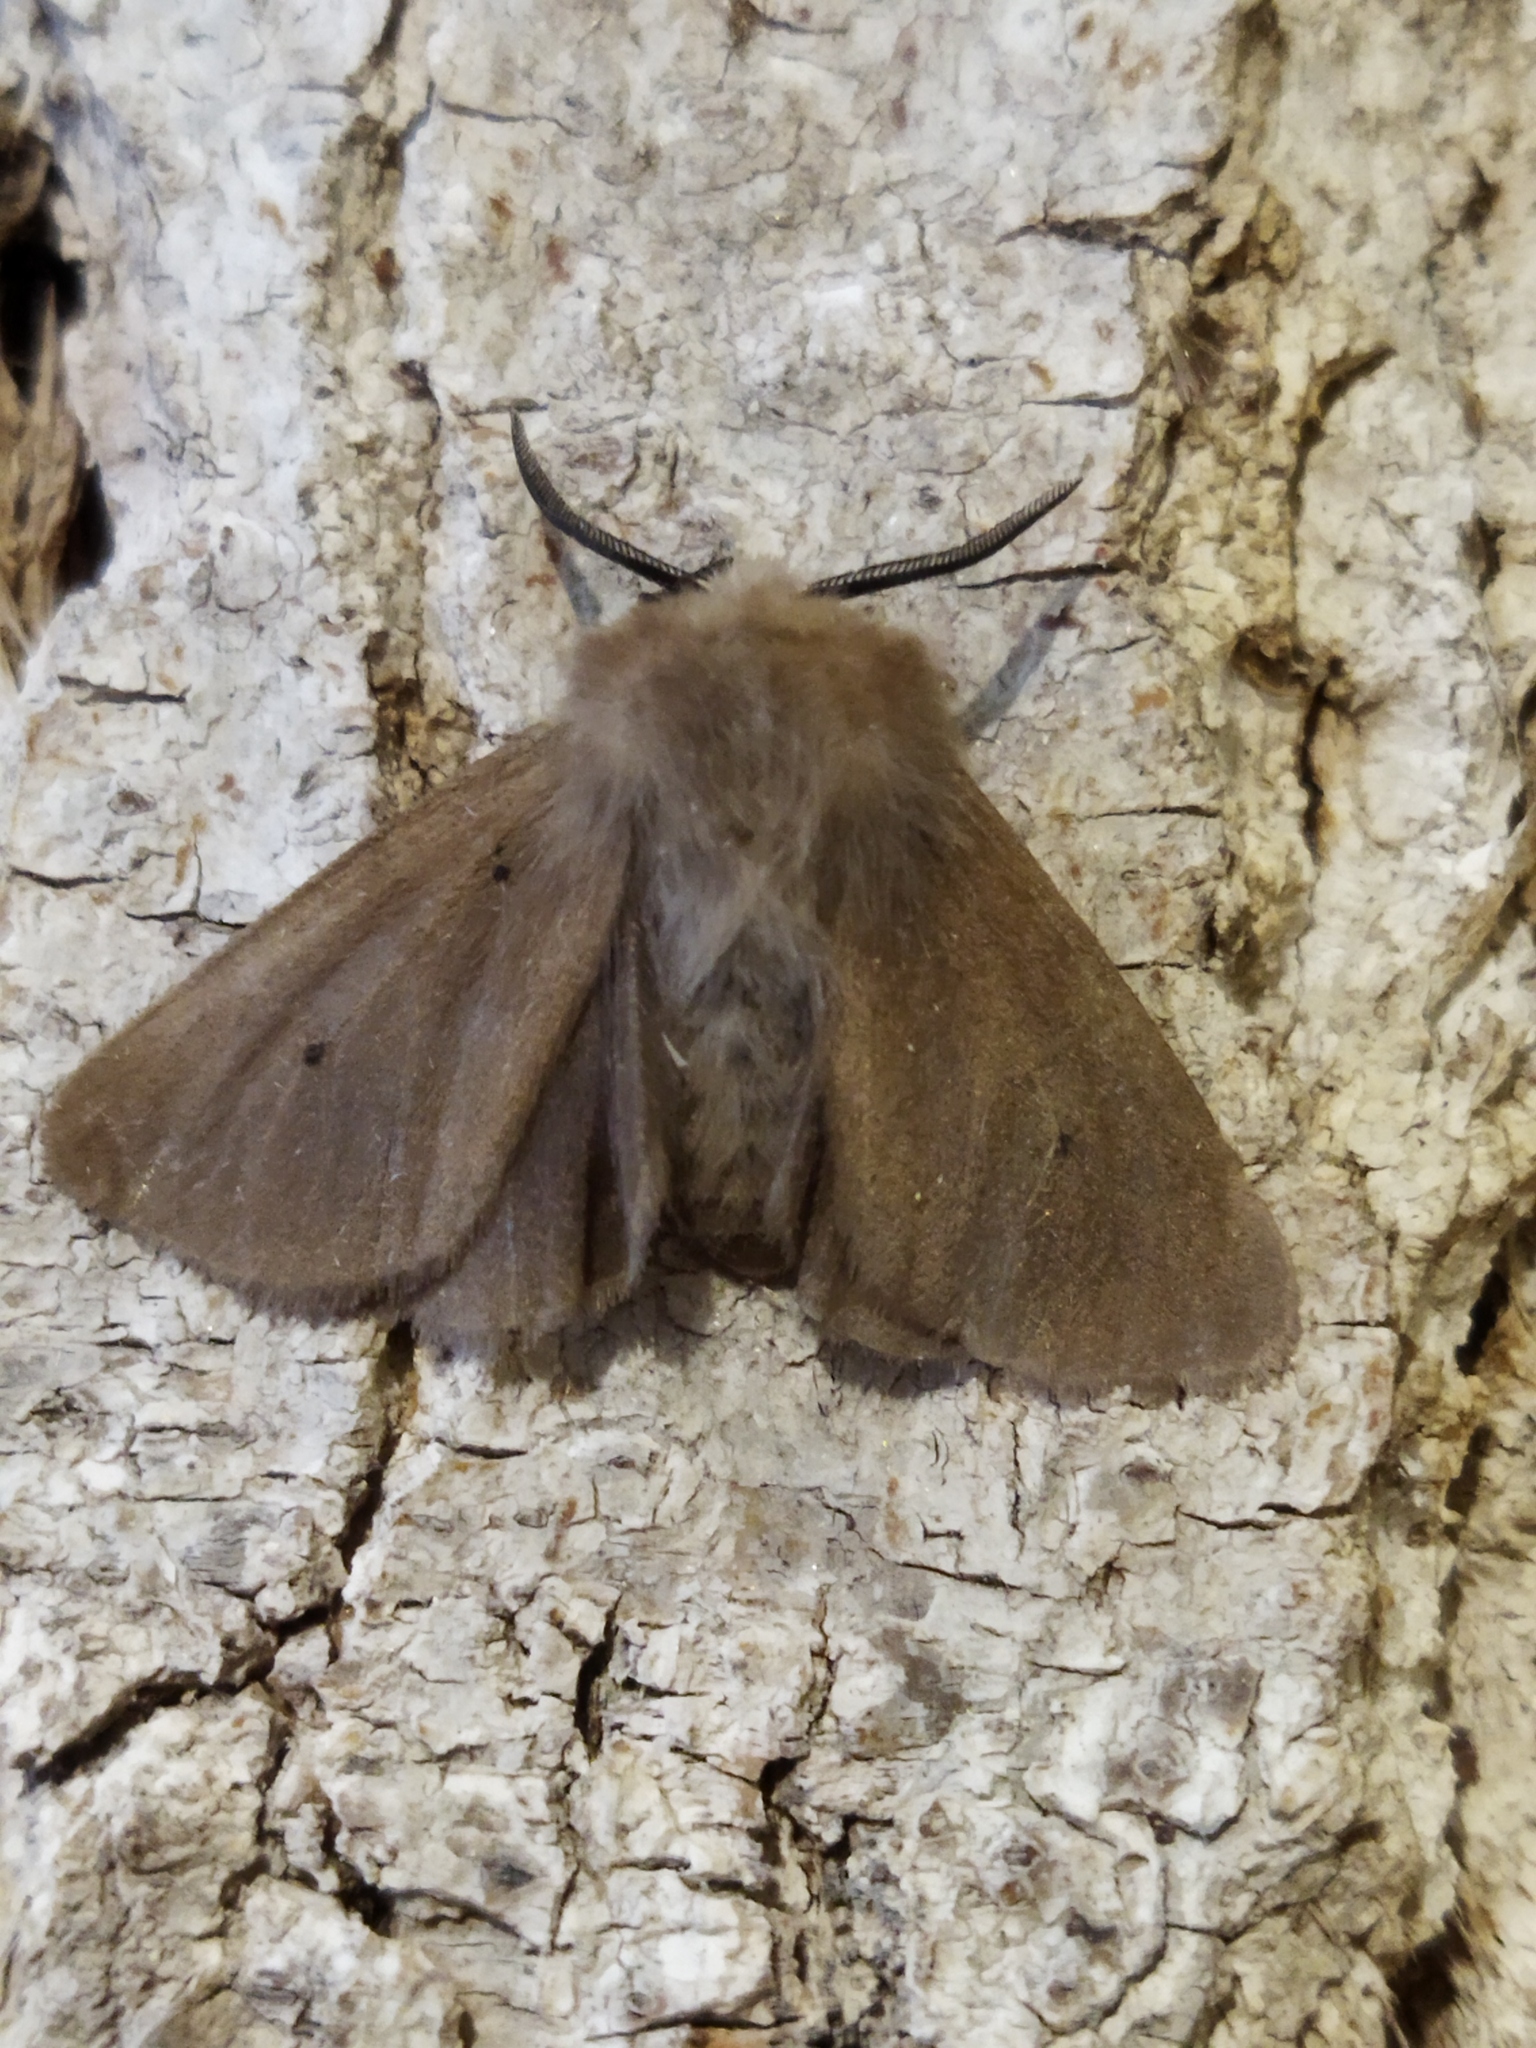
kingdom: Animalia
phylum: Arthropoda
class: Insecta
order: Lepidoptera
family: Erebidae
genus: Diaphora
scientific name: Diaphora mendica
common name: Muslin moth
